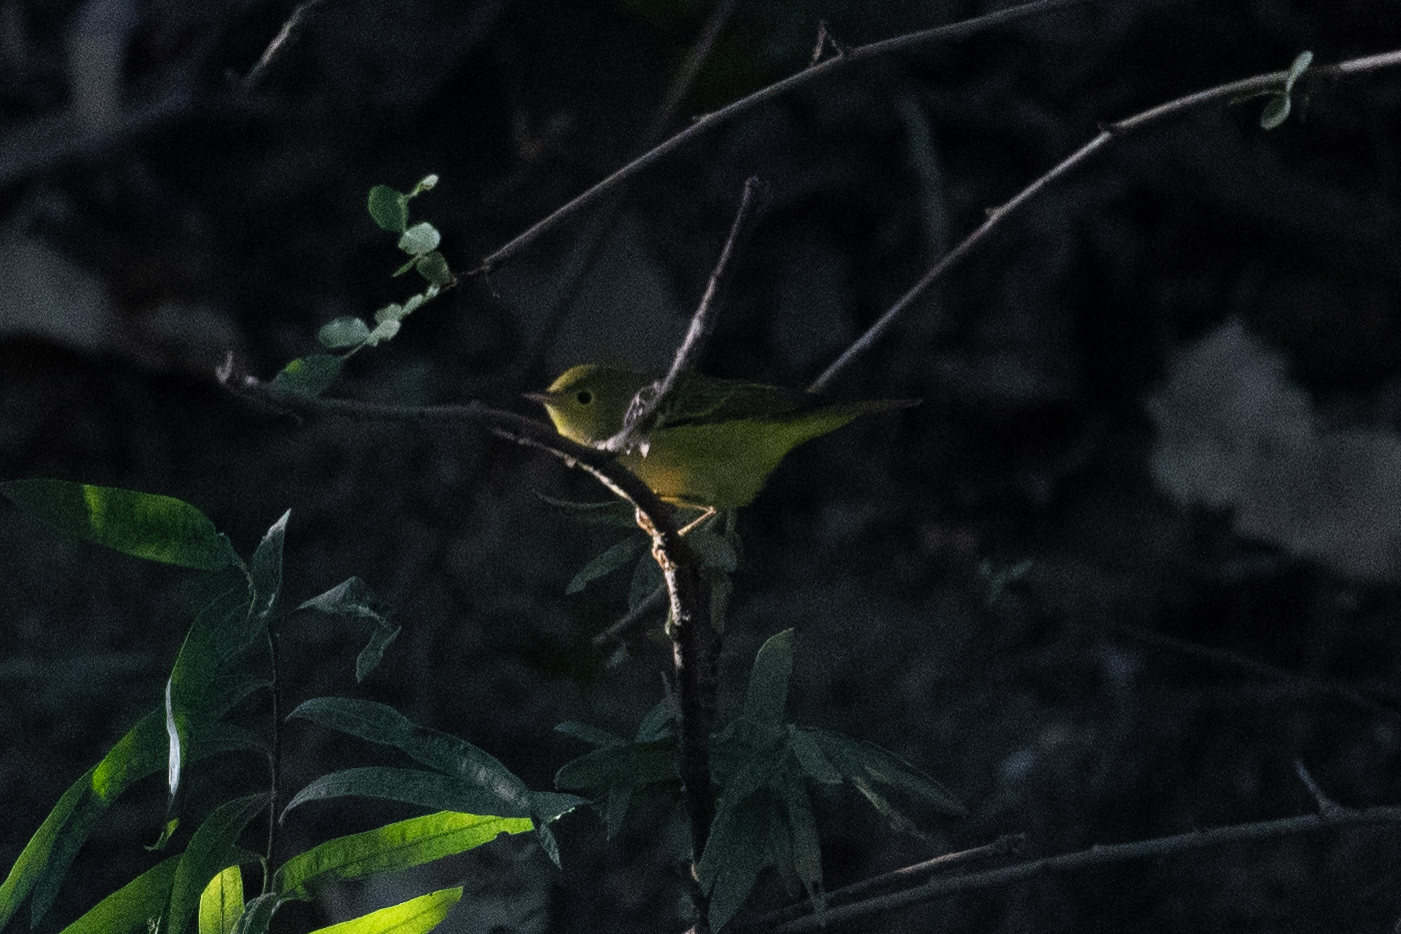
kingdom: Animalia
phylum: Chordata
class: Aves
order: Passeriformes
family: Parulidae
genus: Setophaga
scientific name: Setophaga petechia
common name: Yellow warbler
